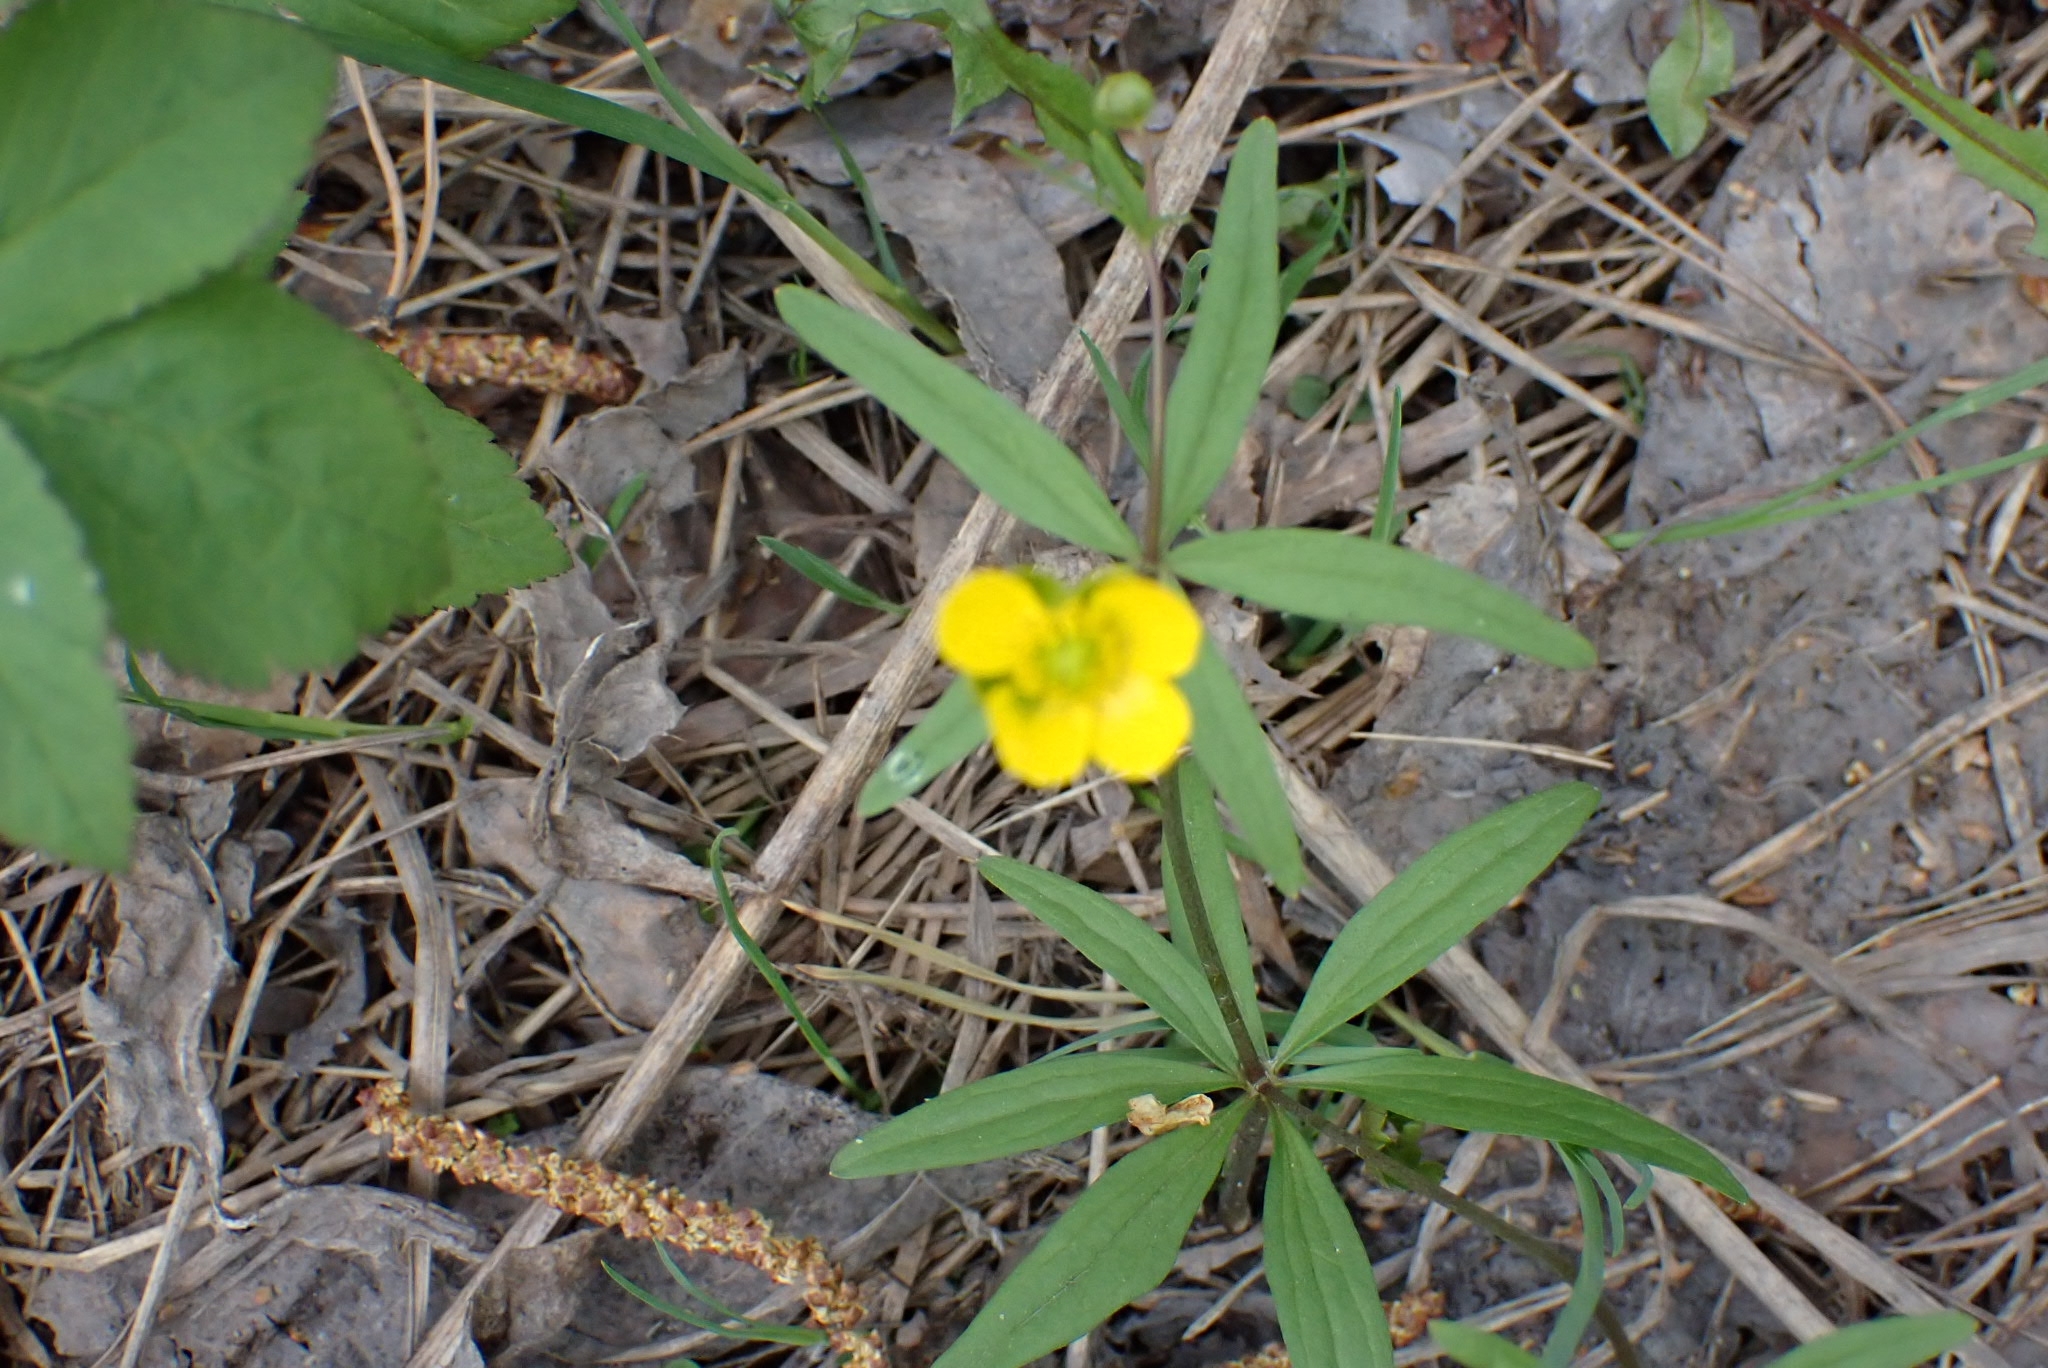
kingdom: Plantae
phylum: Tracheophyta
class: Magnoliopsida
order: Ranunculales
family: Ranunculaceae
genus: Ranunculus
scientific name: Ranunculus monophyllus
